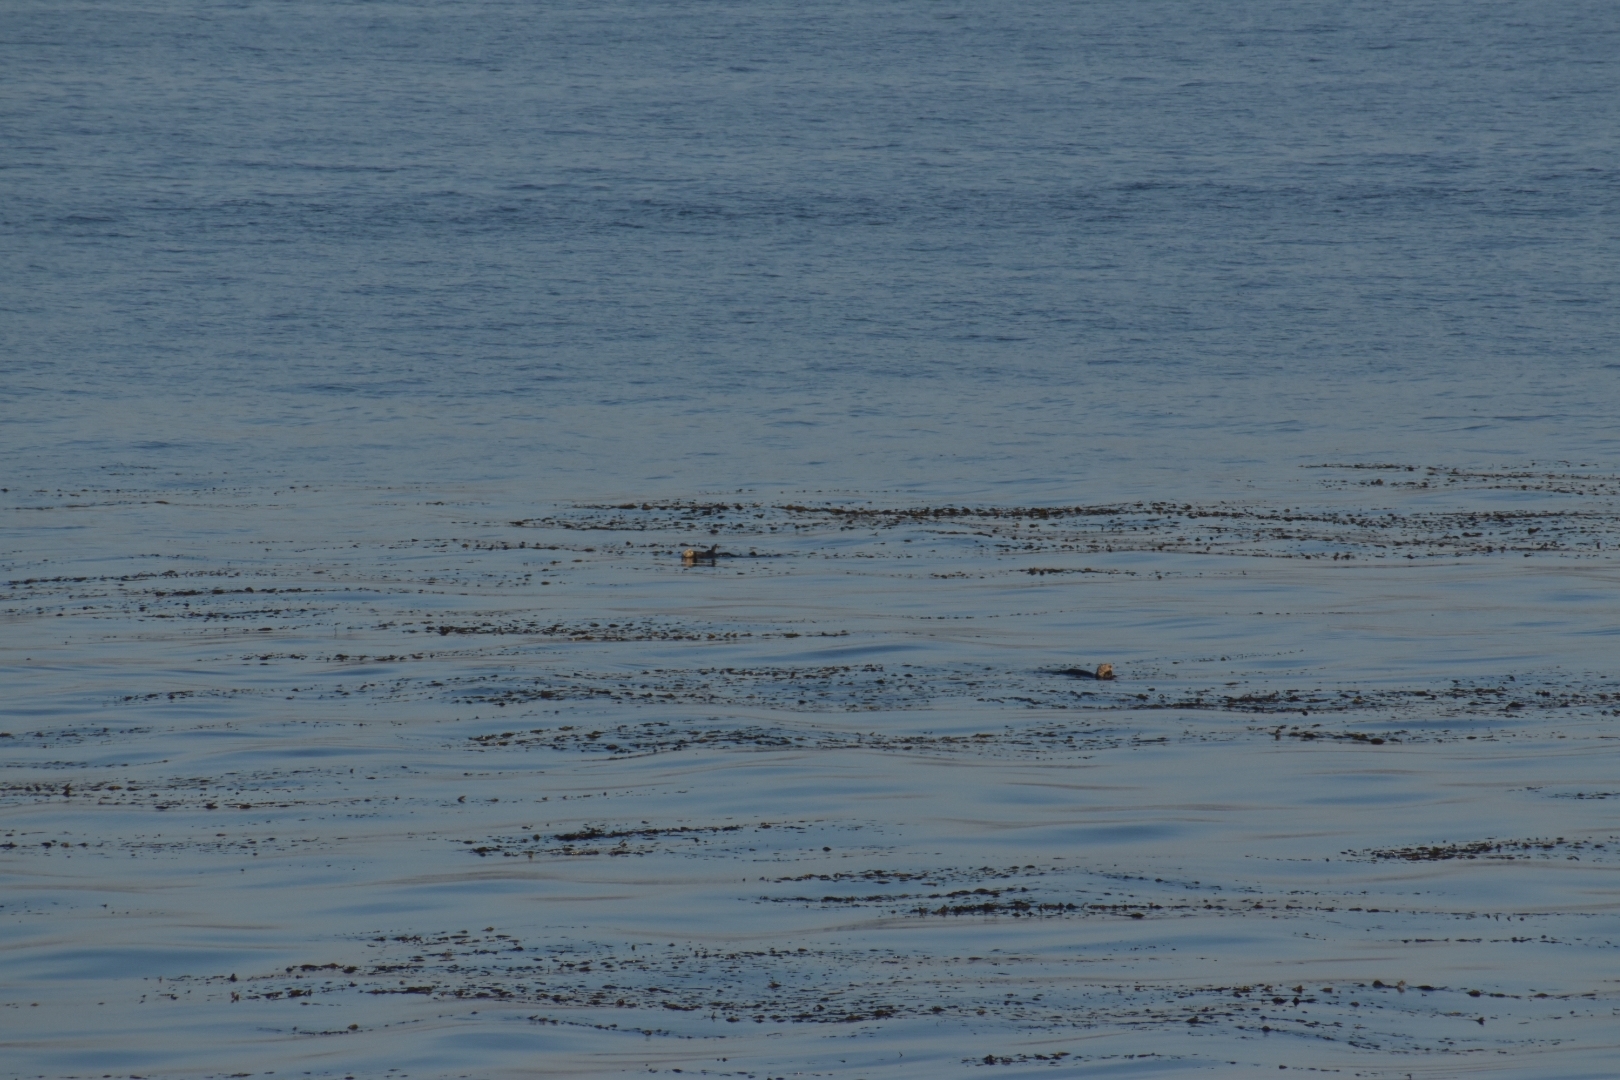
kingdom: Animalia
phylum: Chordata
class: Mammalia
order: Carnivora
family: Mustelidae
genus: Enhydra
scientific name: Enhydra lutris
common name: Sea otter
